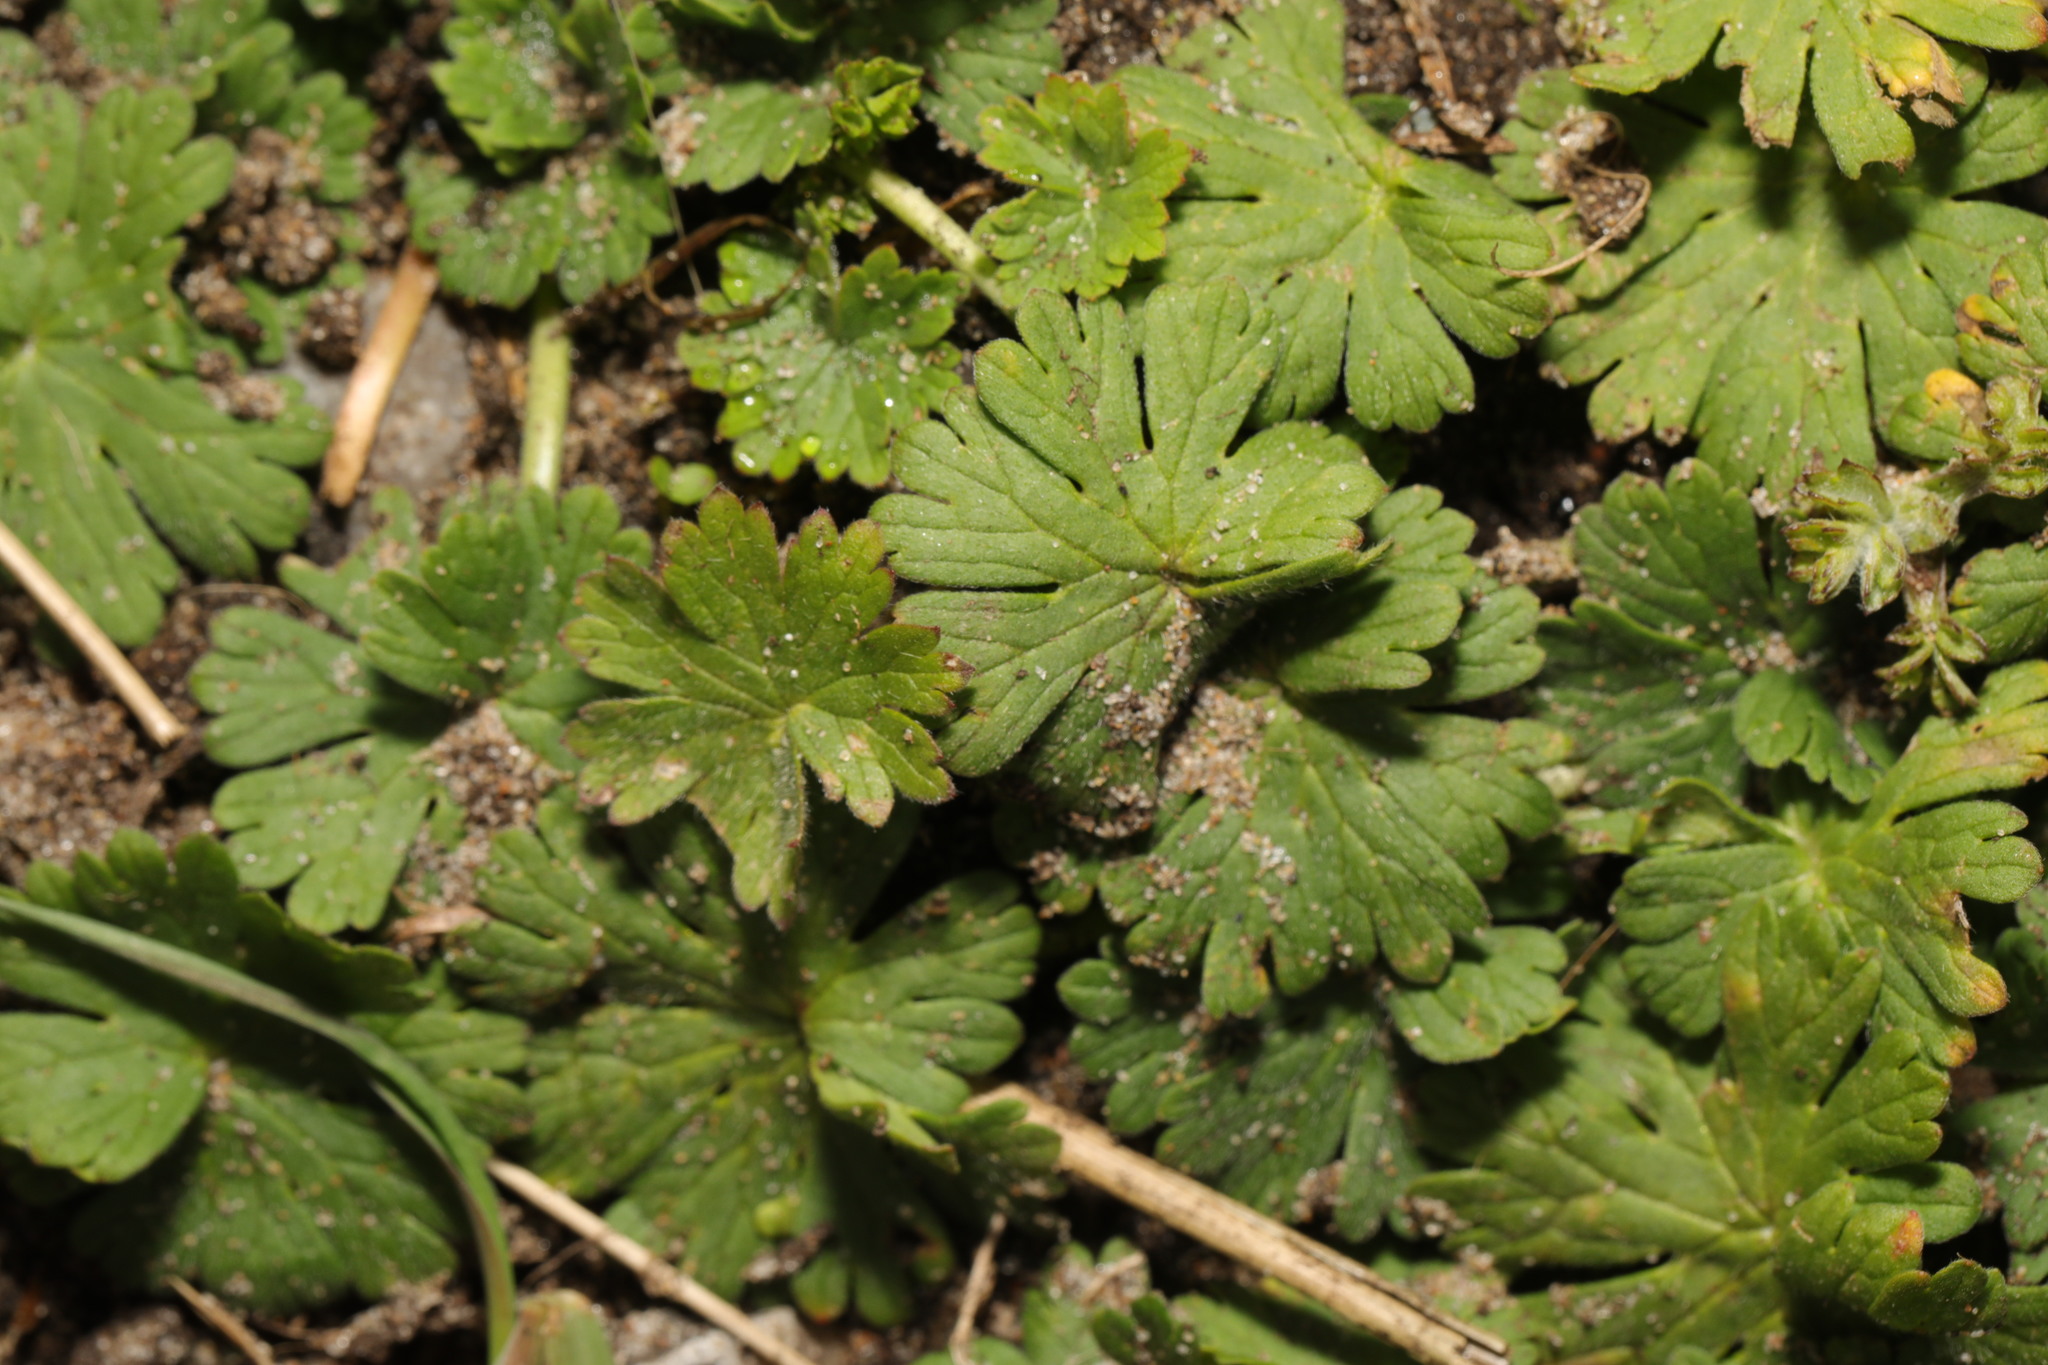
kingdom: Plantae
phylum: Tracheophyta
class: Magnoliopsida
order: Geraniales
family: Geraniaceae
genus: Geranium
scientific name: Geranium molle
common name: Dove's-foot crane's-bill
